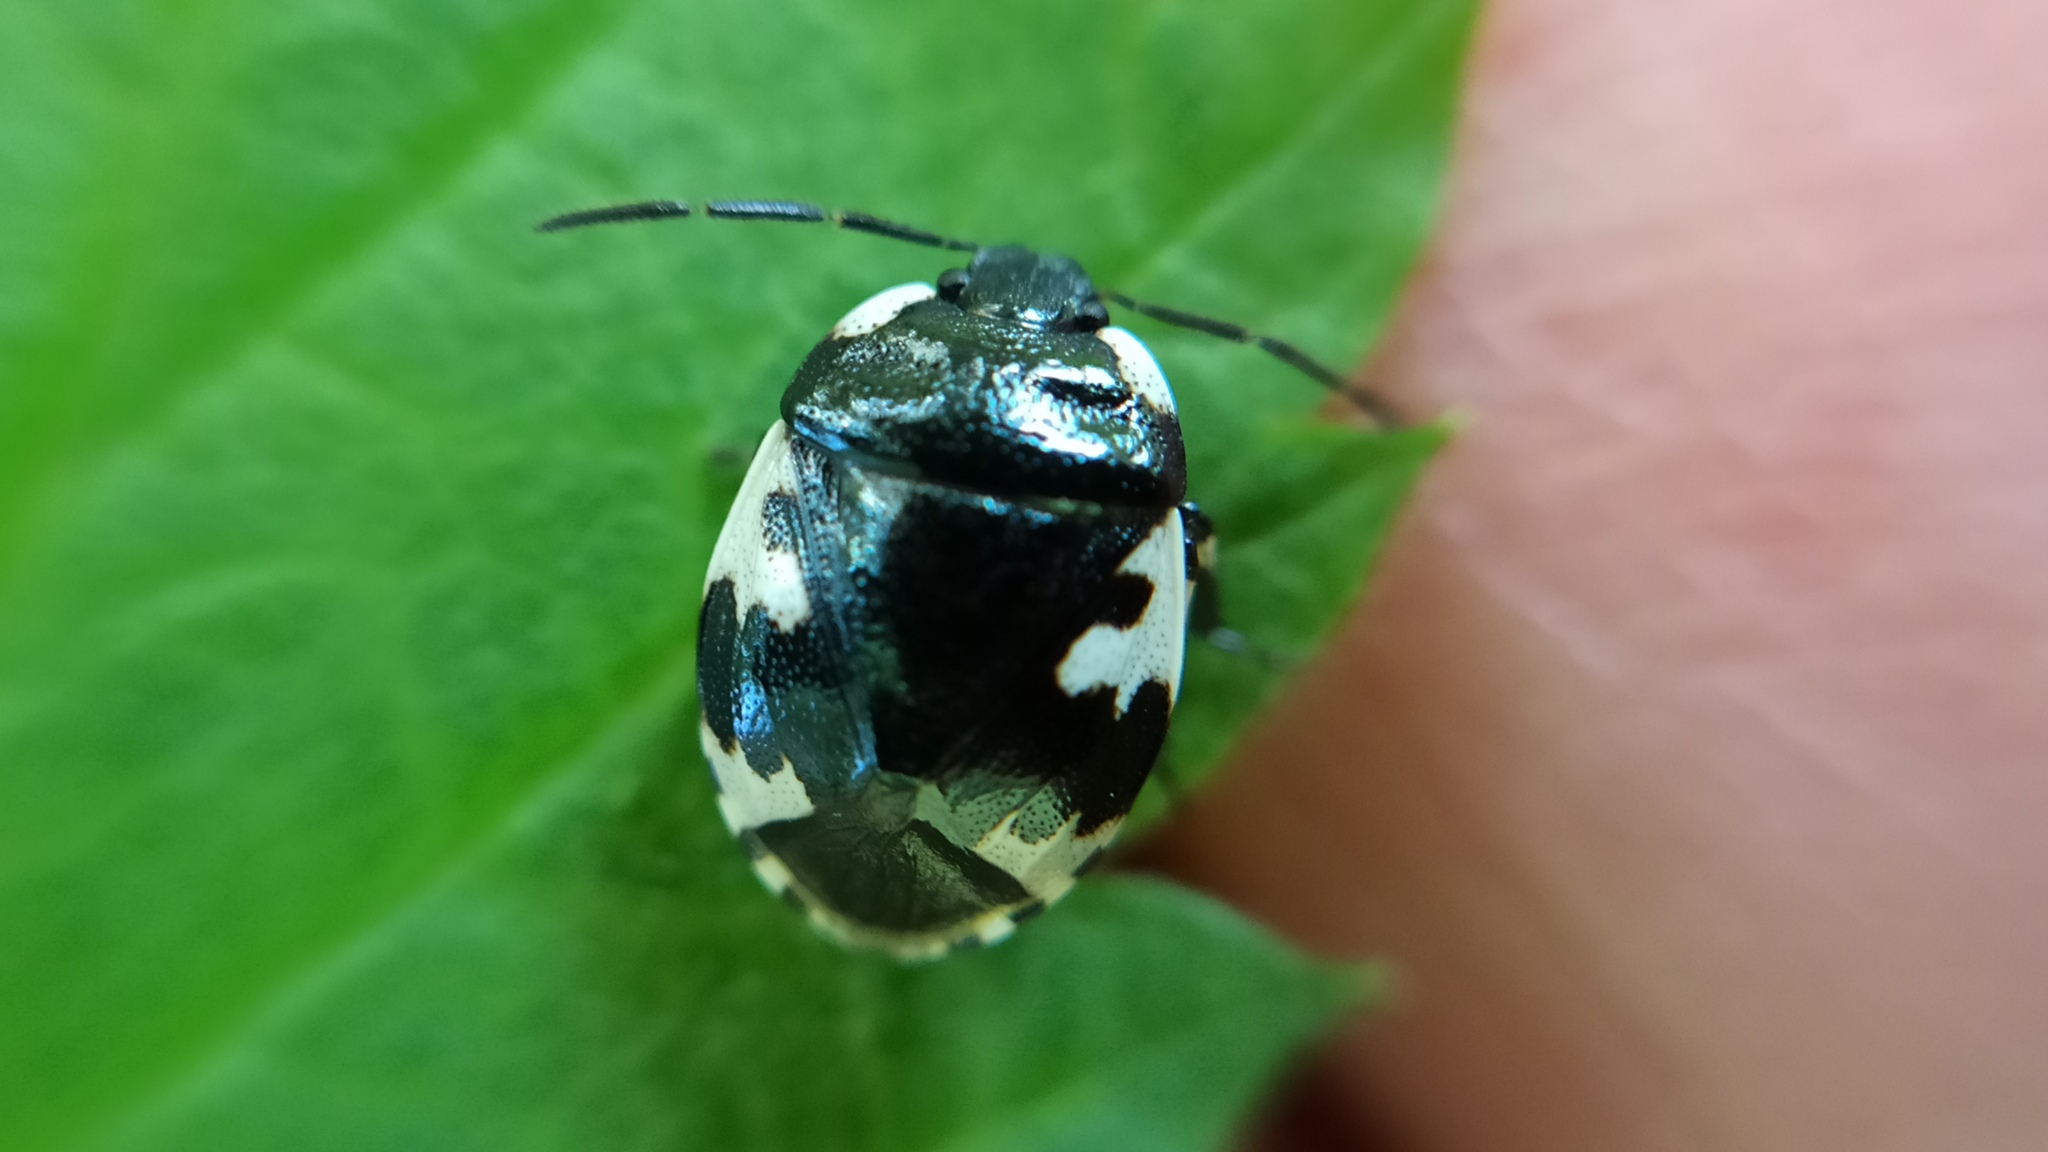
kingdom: Animalia
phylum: Arthropoda
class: Insecta
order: Hemiptera
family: Cydnidae
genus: Tritomegas
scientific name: Tritomegas rotundipennis
